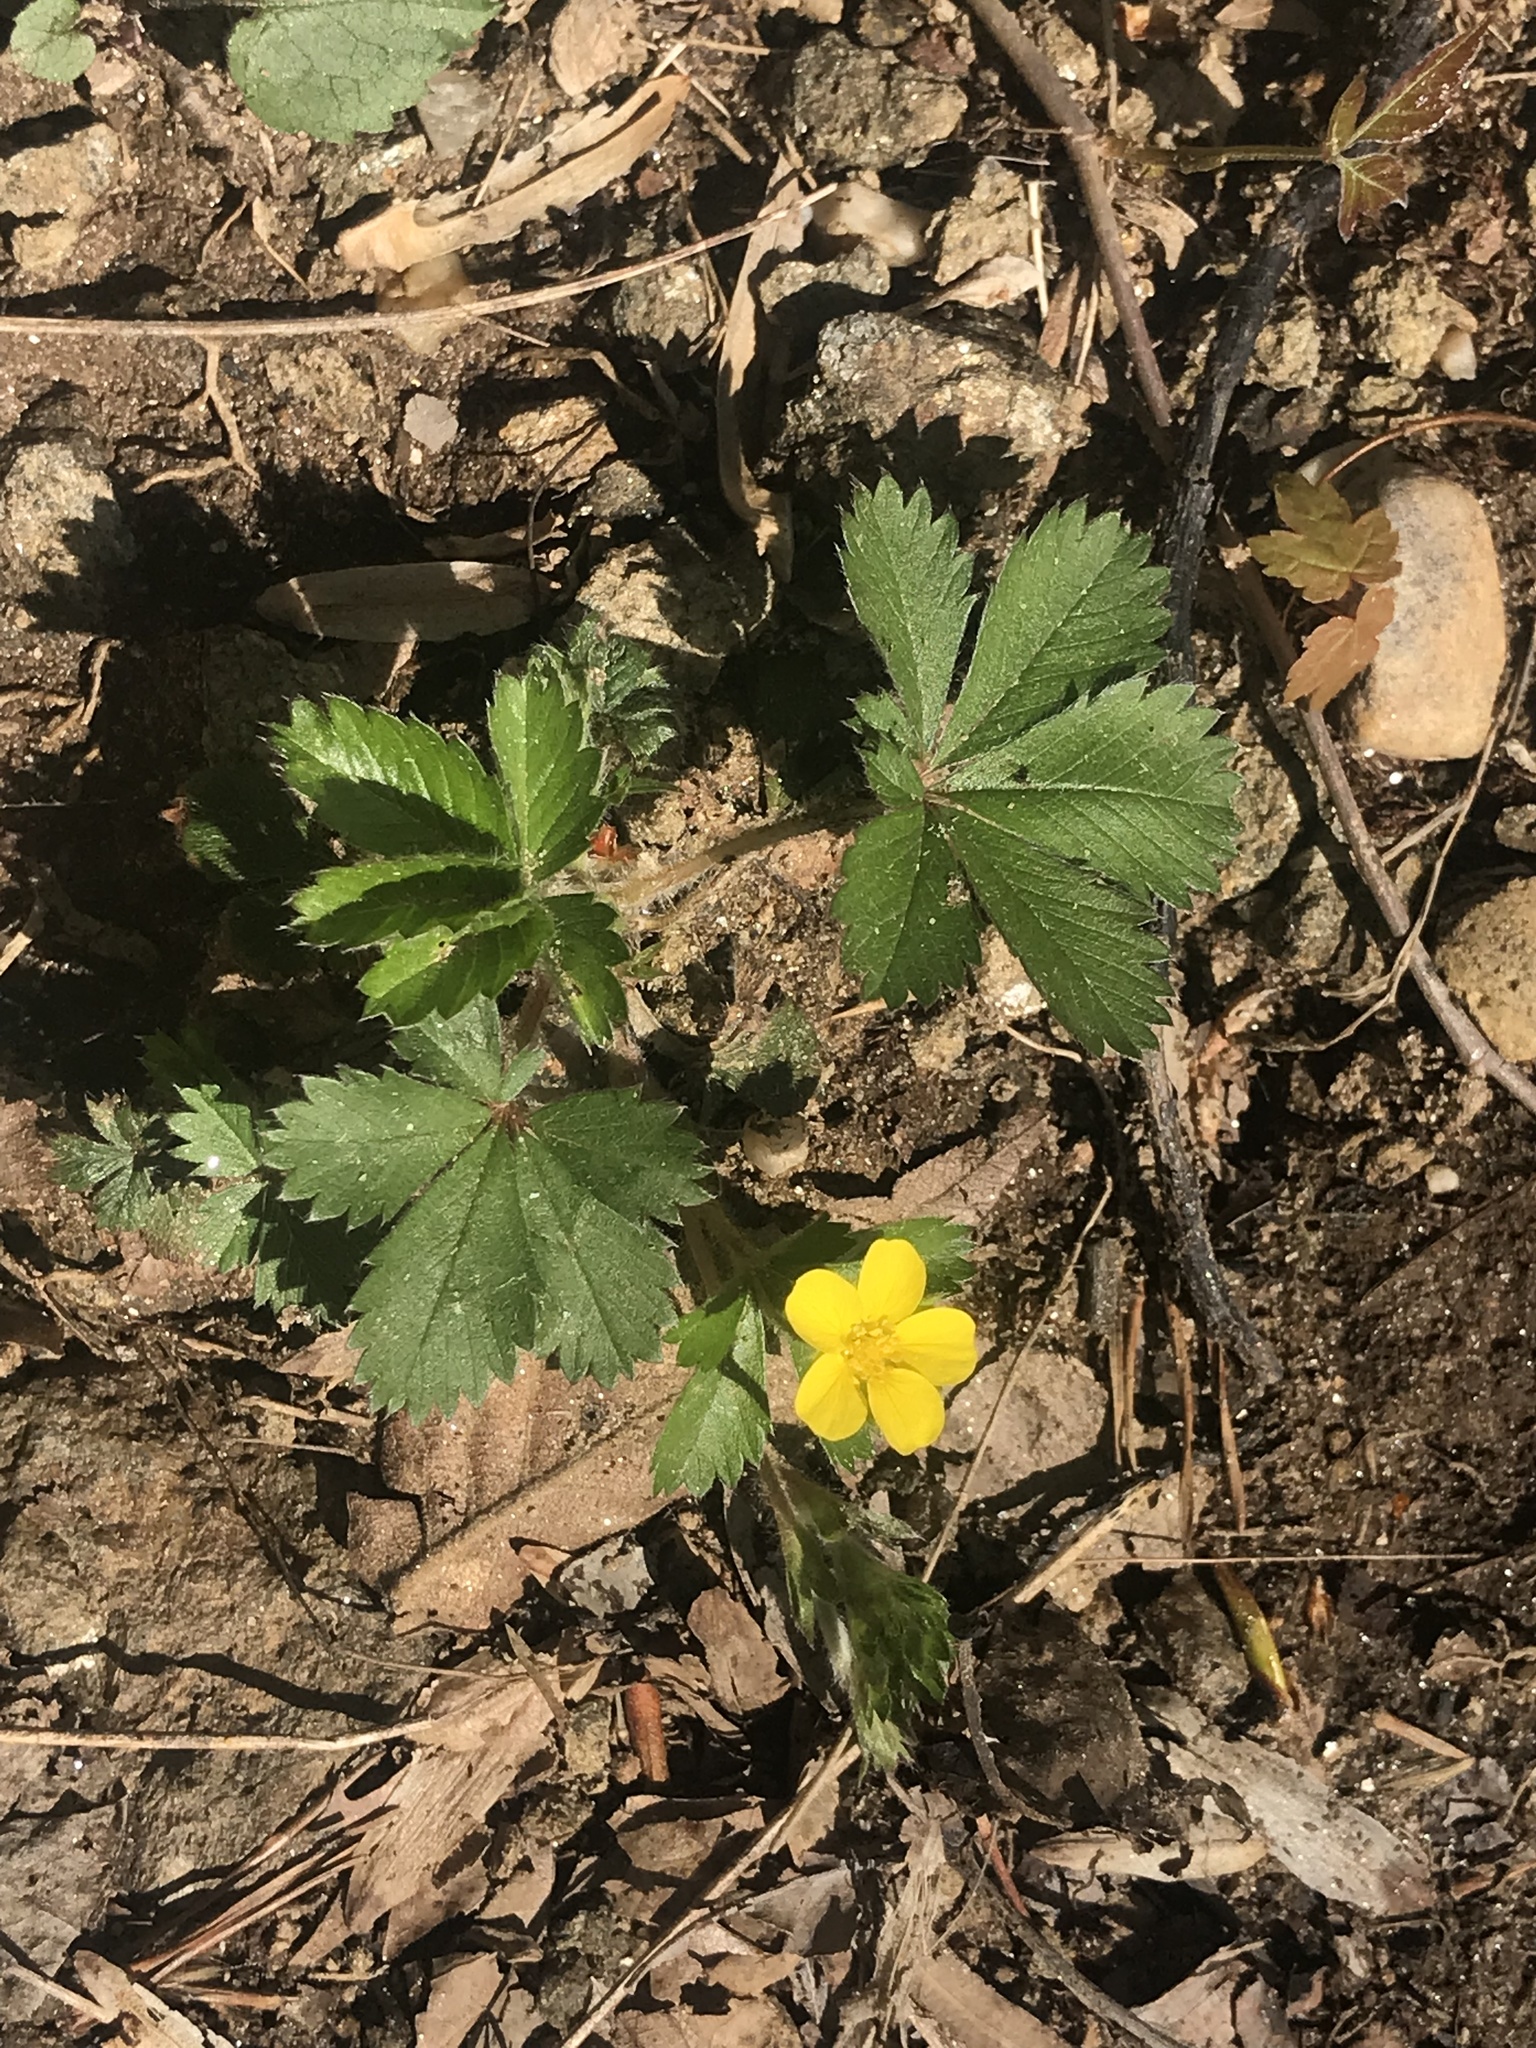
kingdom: Plantae
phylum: Tracheophyta
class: Magnoliopsida
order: Rosales
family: Rosaceae
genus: Potentilla
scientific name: Potentilla canadensis
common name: Canada cinquefoil
